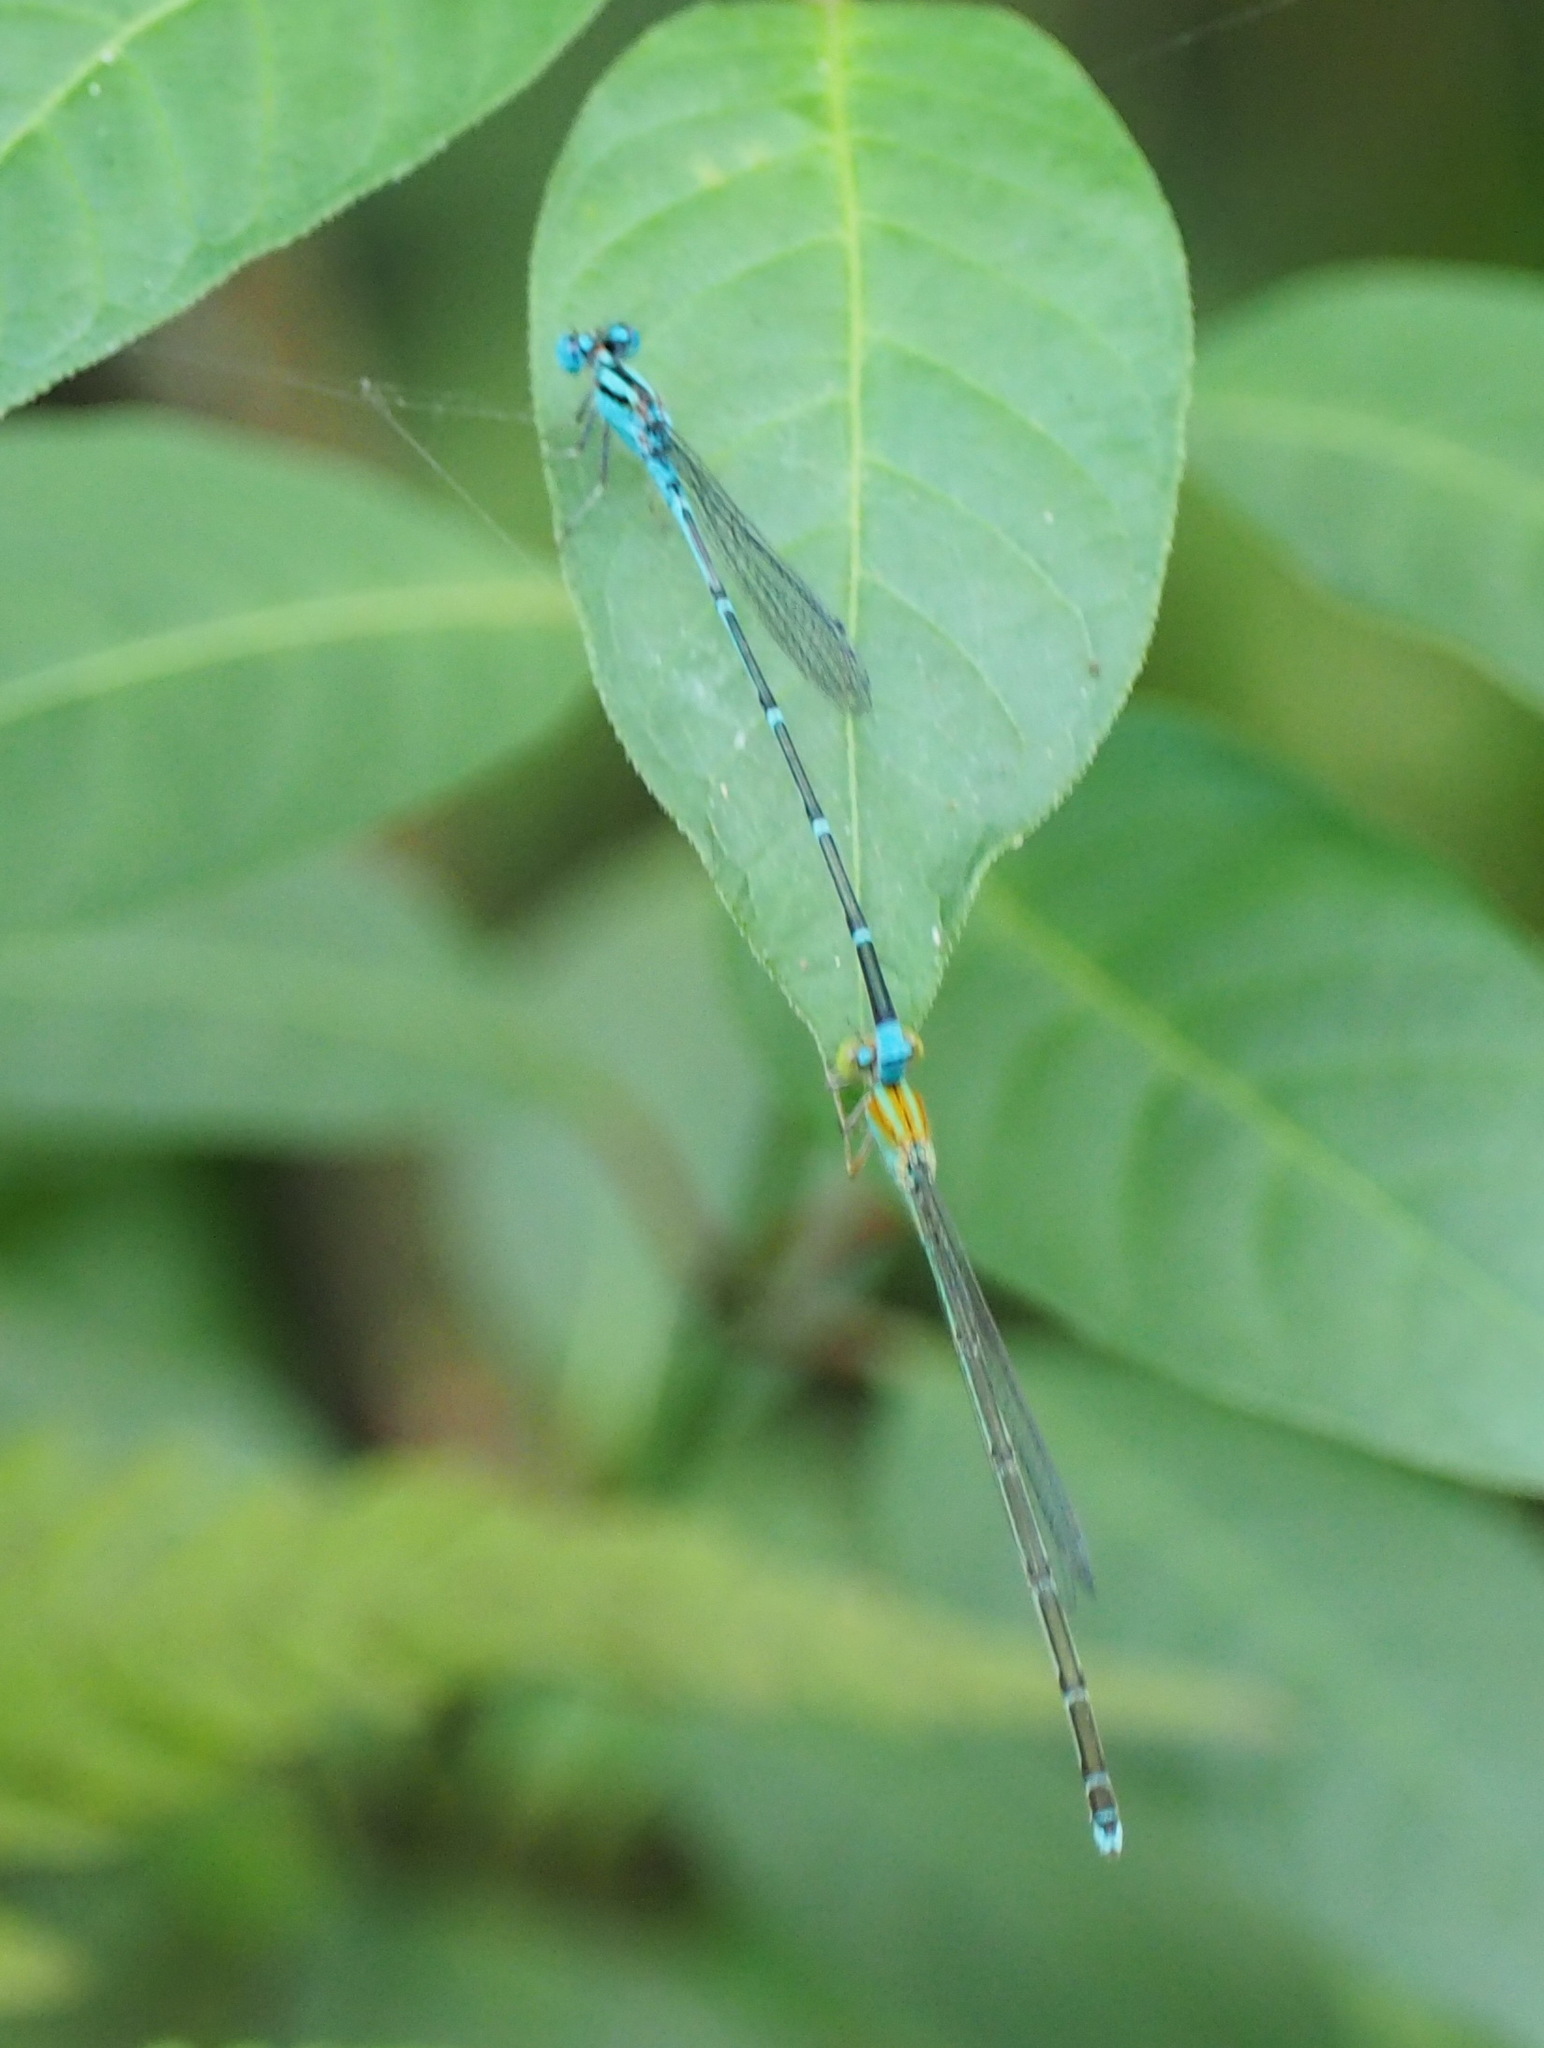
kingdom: Animalia
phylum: Arthropoda
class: Insecta
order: Odonata
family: Coenagrionidae
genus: Pseudagrion
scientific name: Pseudagrion microcephalum
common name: Blue riverdamsel
